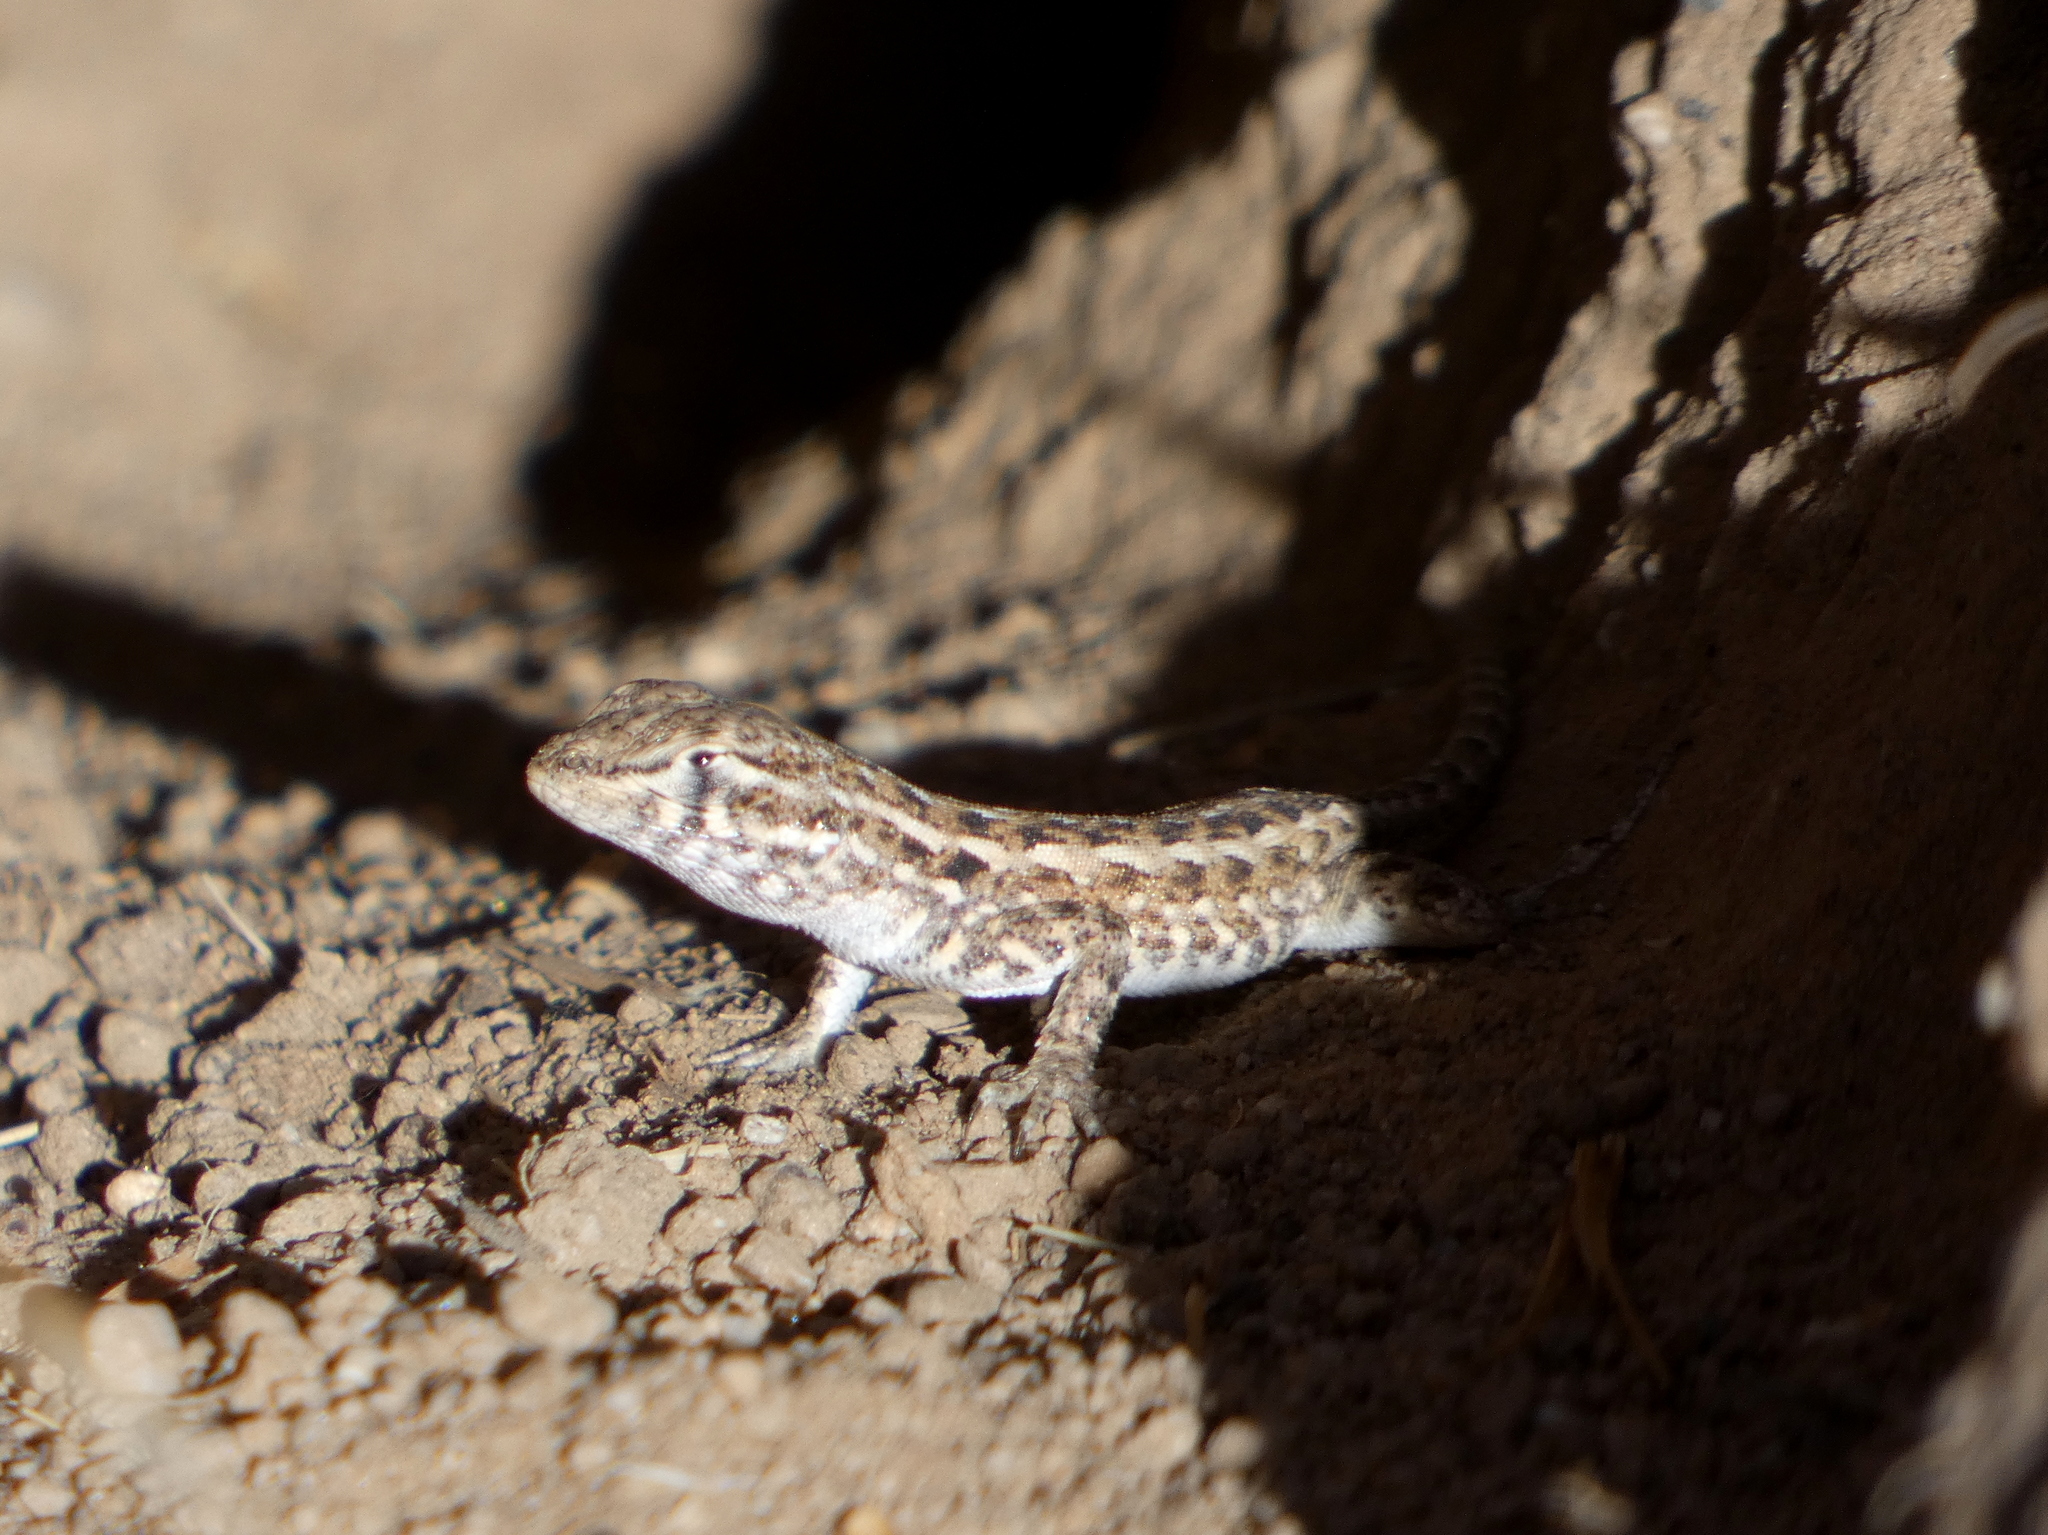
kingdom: Animalia
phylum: Chordata
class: Squamata
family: Phrynosomatidae
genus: Uta
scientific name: Uta stansburiana
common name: Side-blotched lizard
